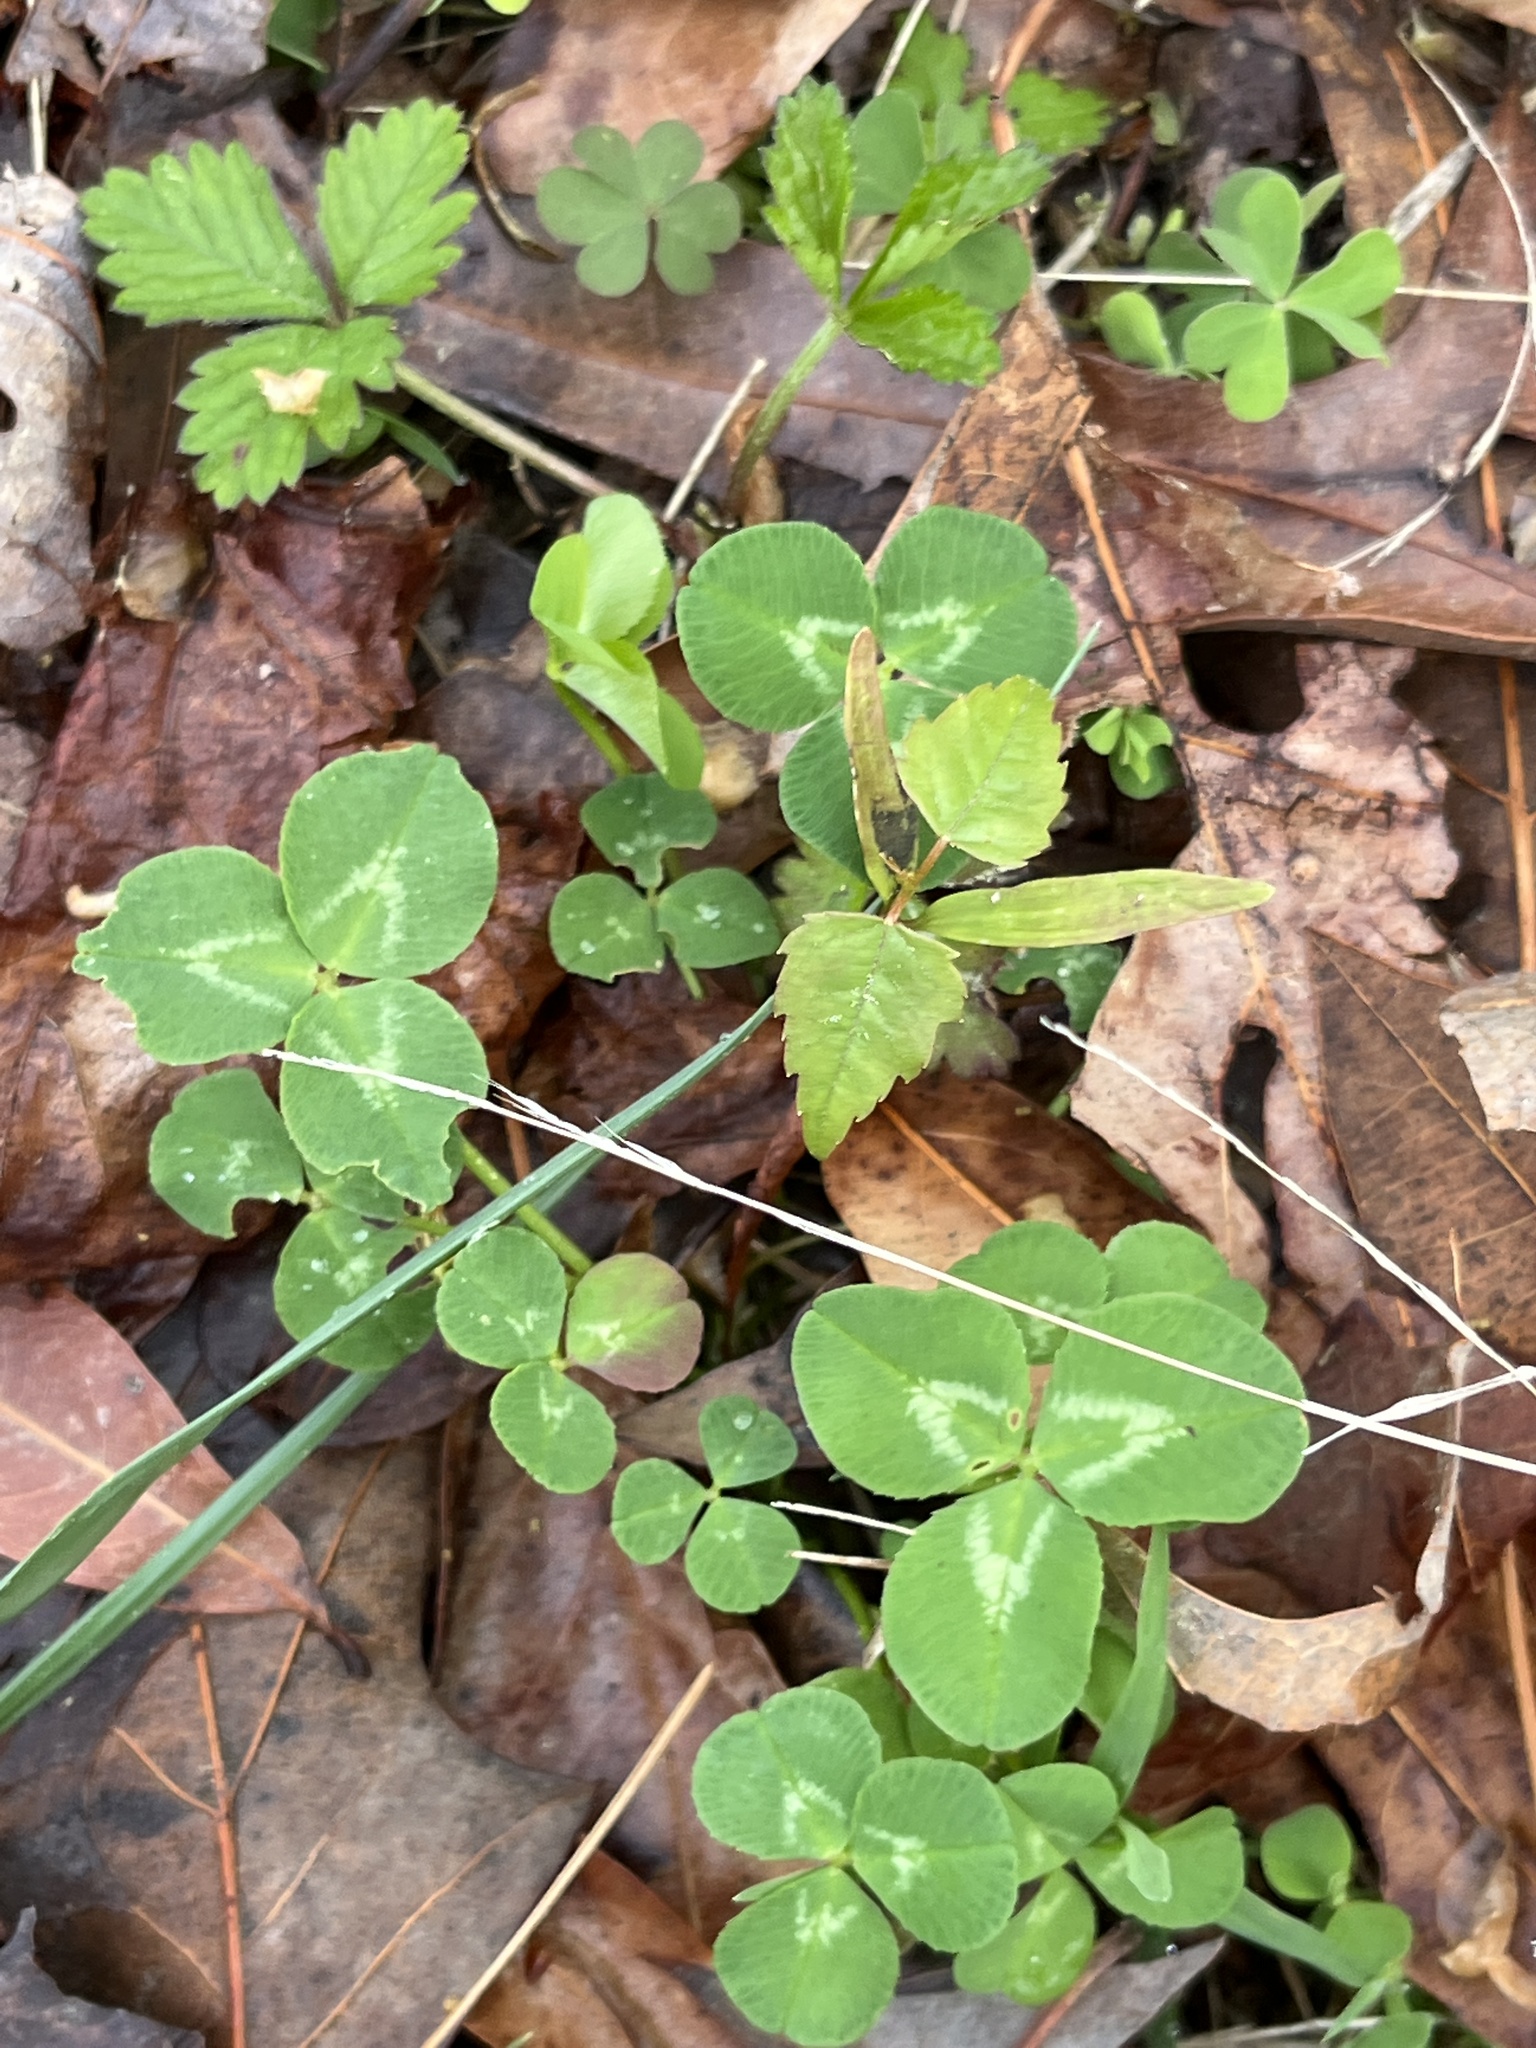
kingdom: Plantae
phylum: Tracheophyta
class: Magnoliopsida
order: Fabales
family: Fabaceae
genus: Trifolium
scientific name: Trifolium repens
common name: White clover
